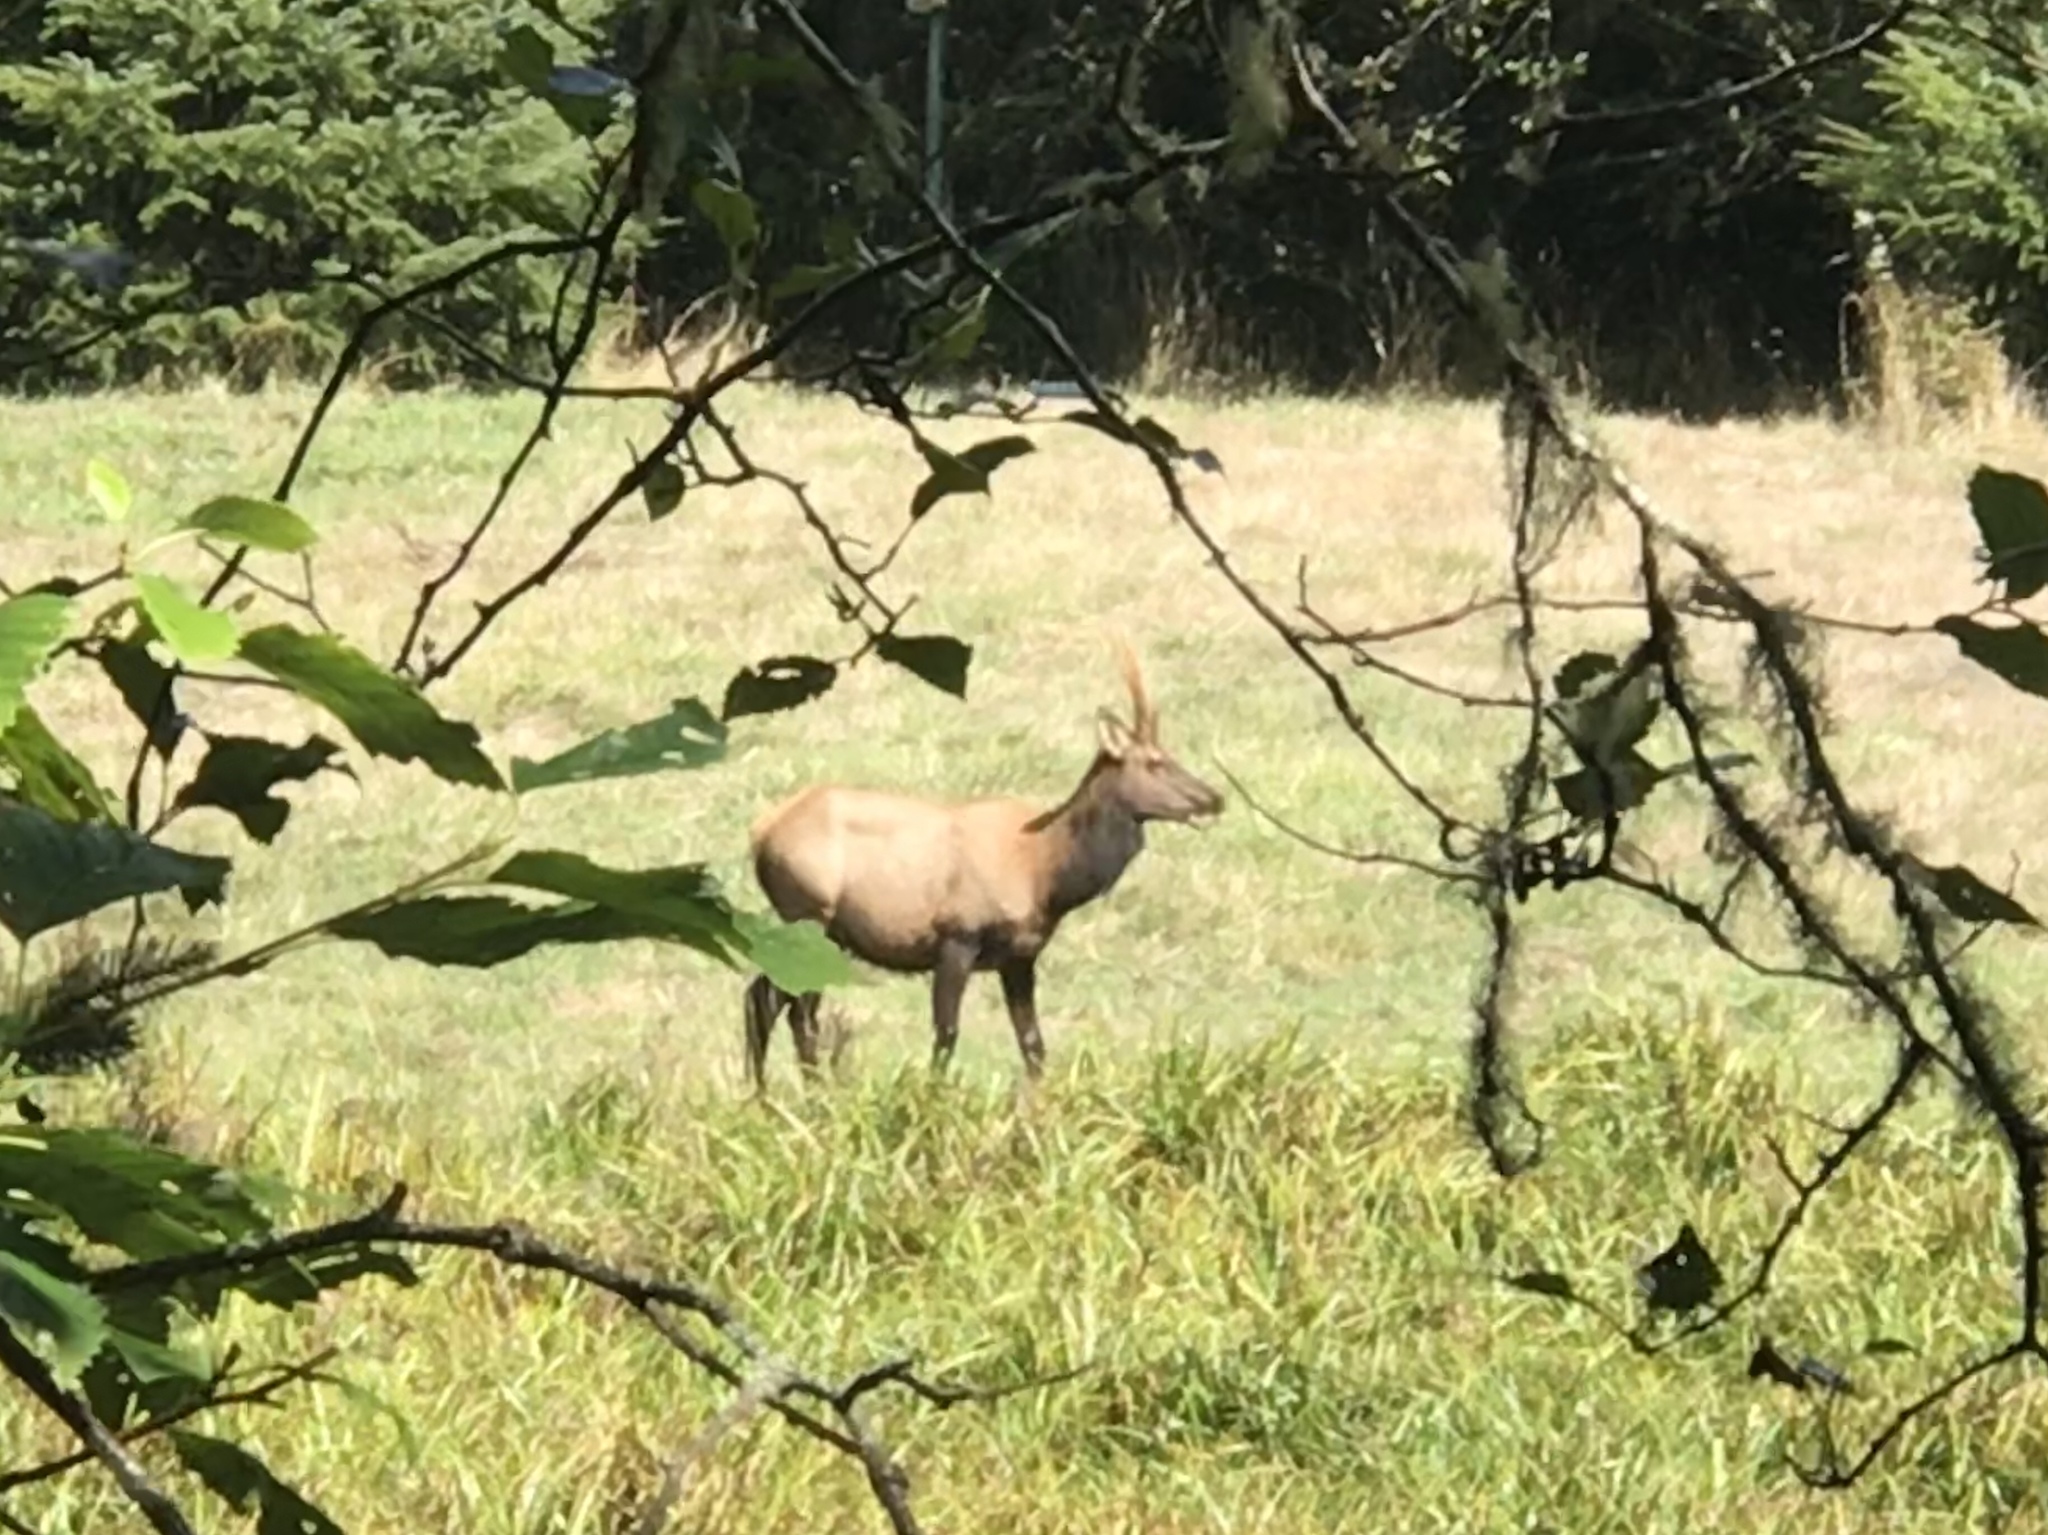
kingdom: Animalia
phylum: Chordata
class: Mammalia
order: Artiodactyla
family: Cervidae
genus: Cervus
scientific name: Cervus elaphus
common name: Red deer
